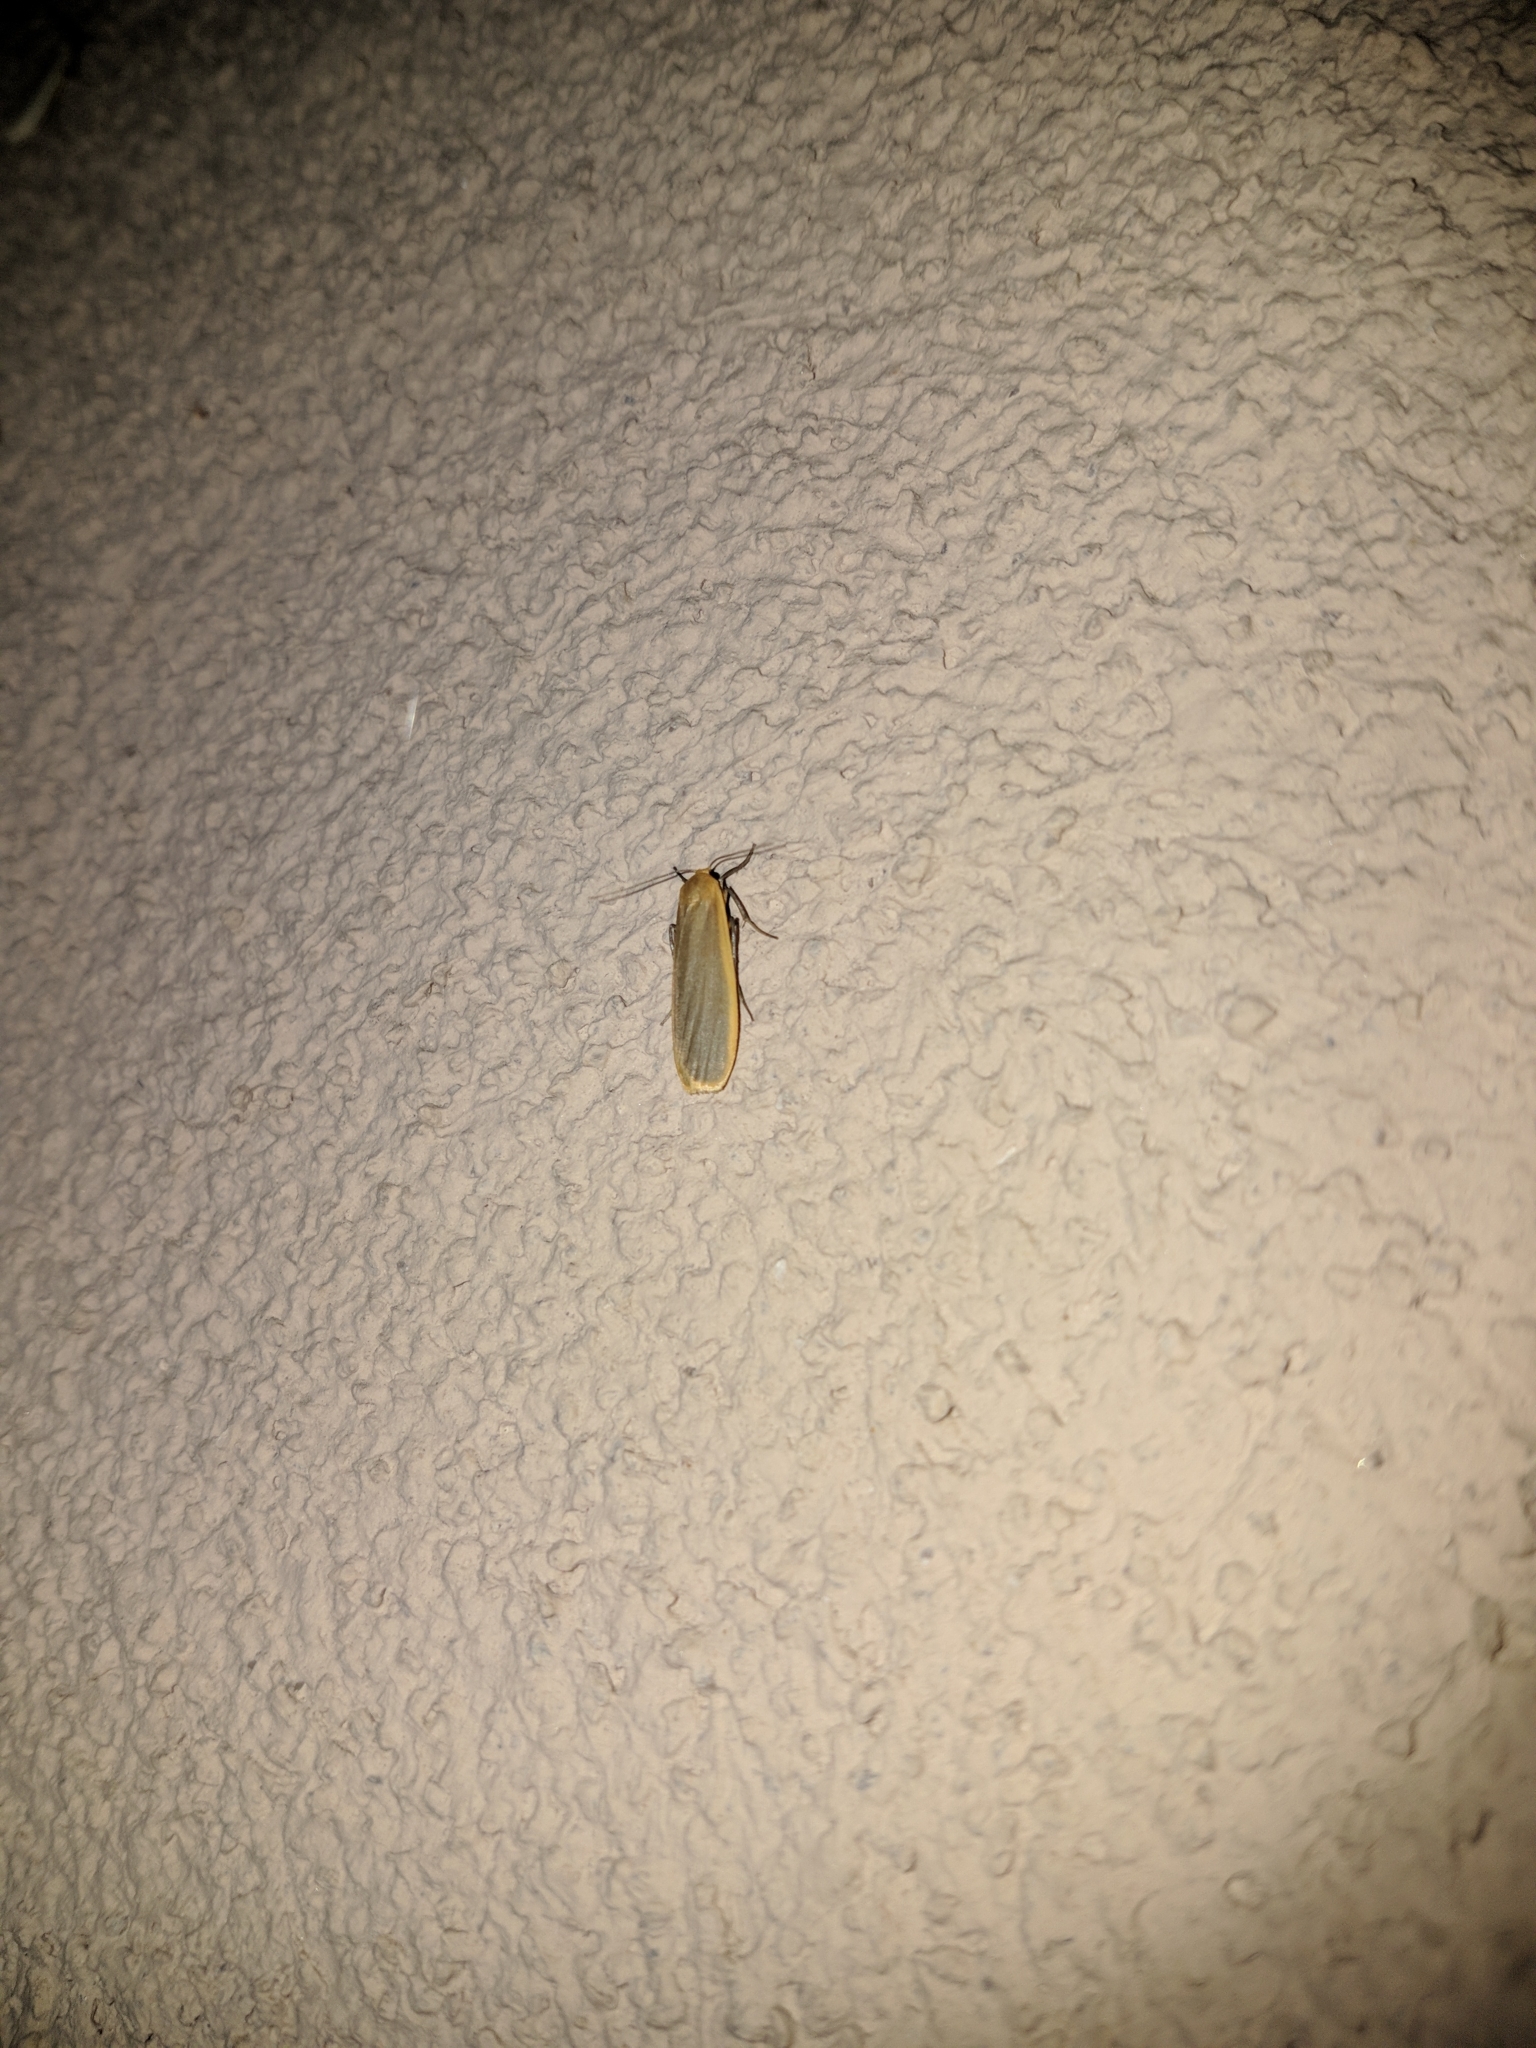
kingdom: Animalia
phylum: Arthropoda
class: Insecta
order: Lepidoptera
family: Erebidae
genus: Katha
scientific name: Katha depressa
